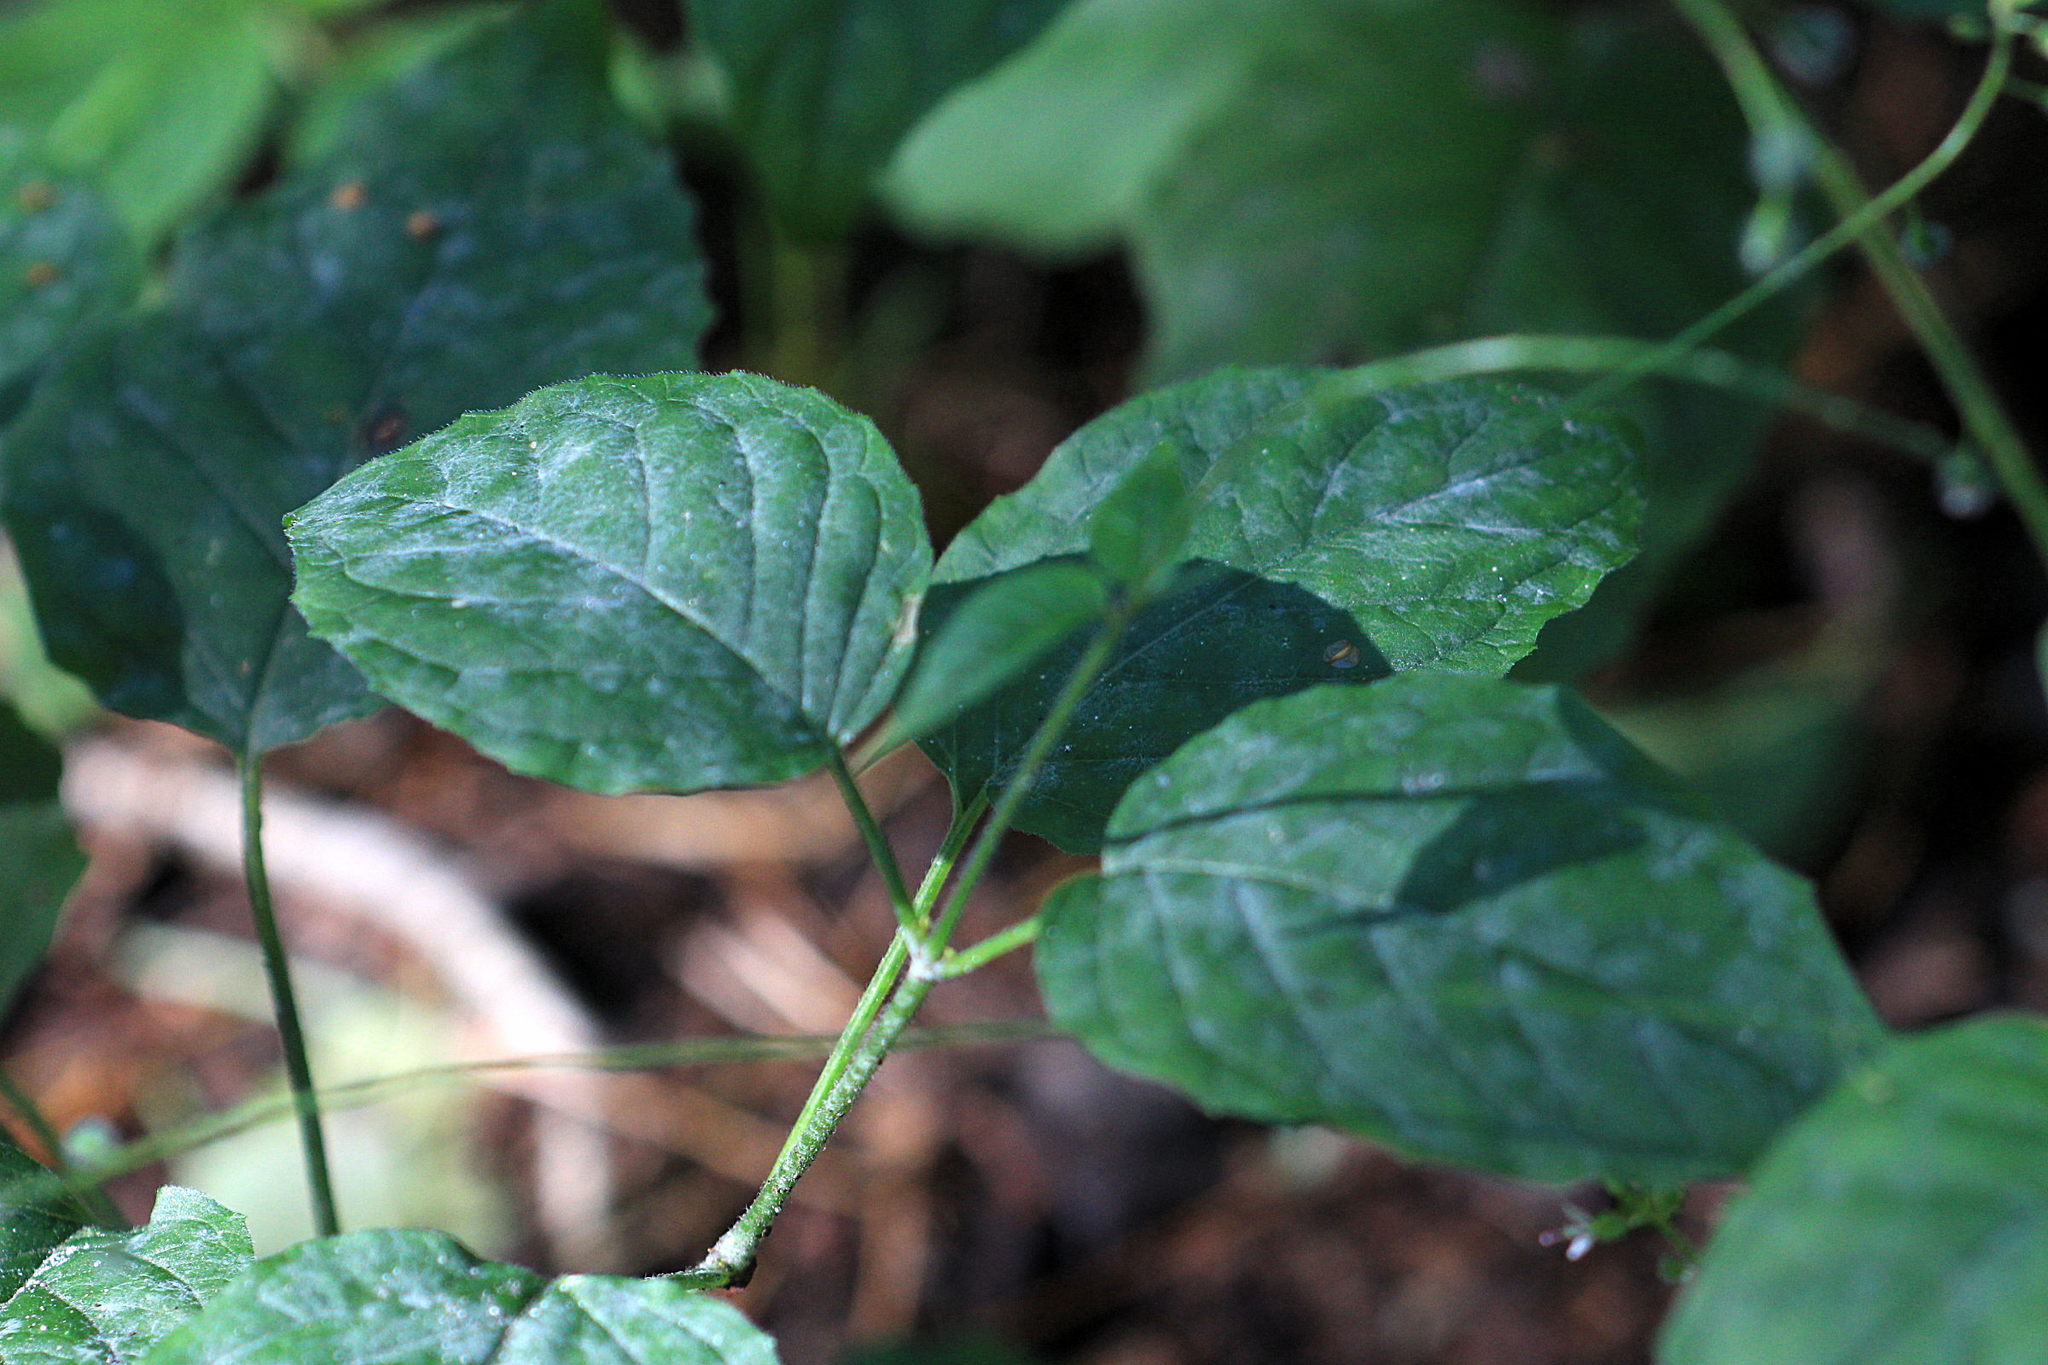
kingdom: Plantae
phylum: Tracheophyta
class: Magnoliopsida
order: Myrtales
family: Onagraceae
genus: Circaea
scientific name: Circaea lutetiana
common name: Enchanter's-nightshade
